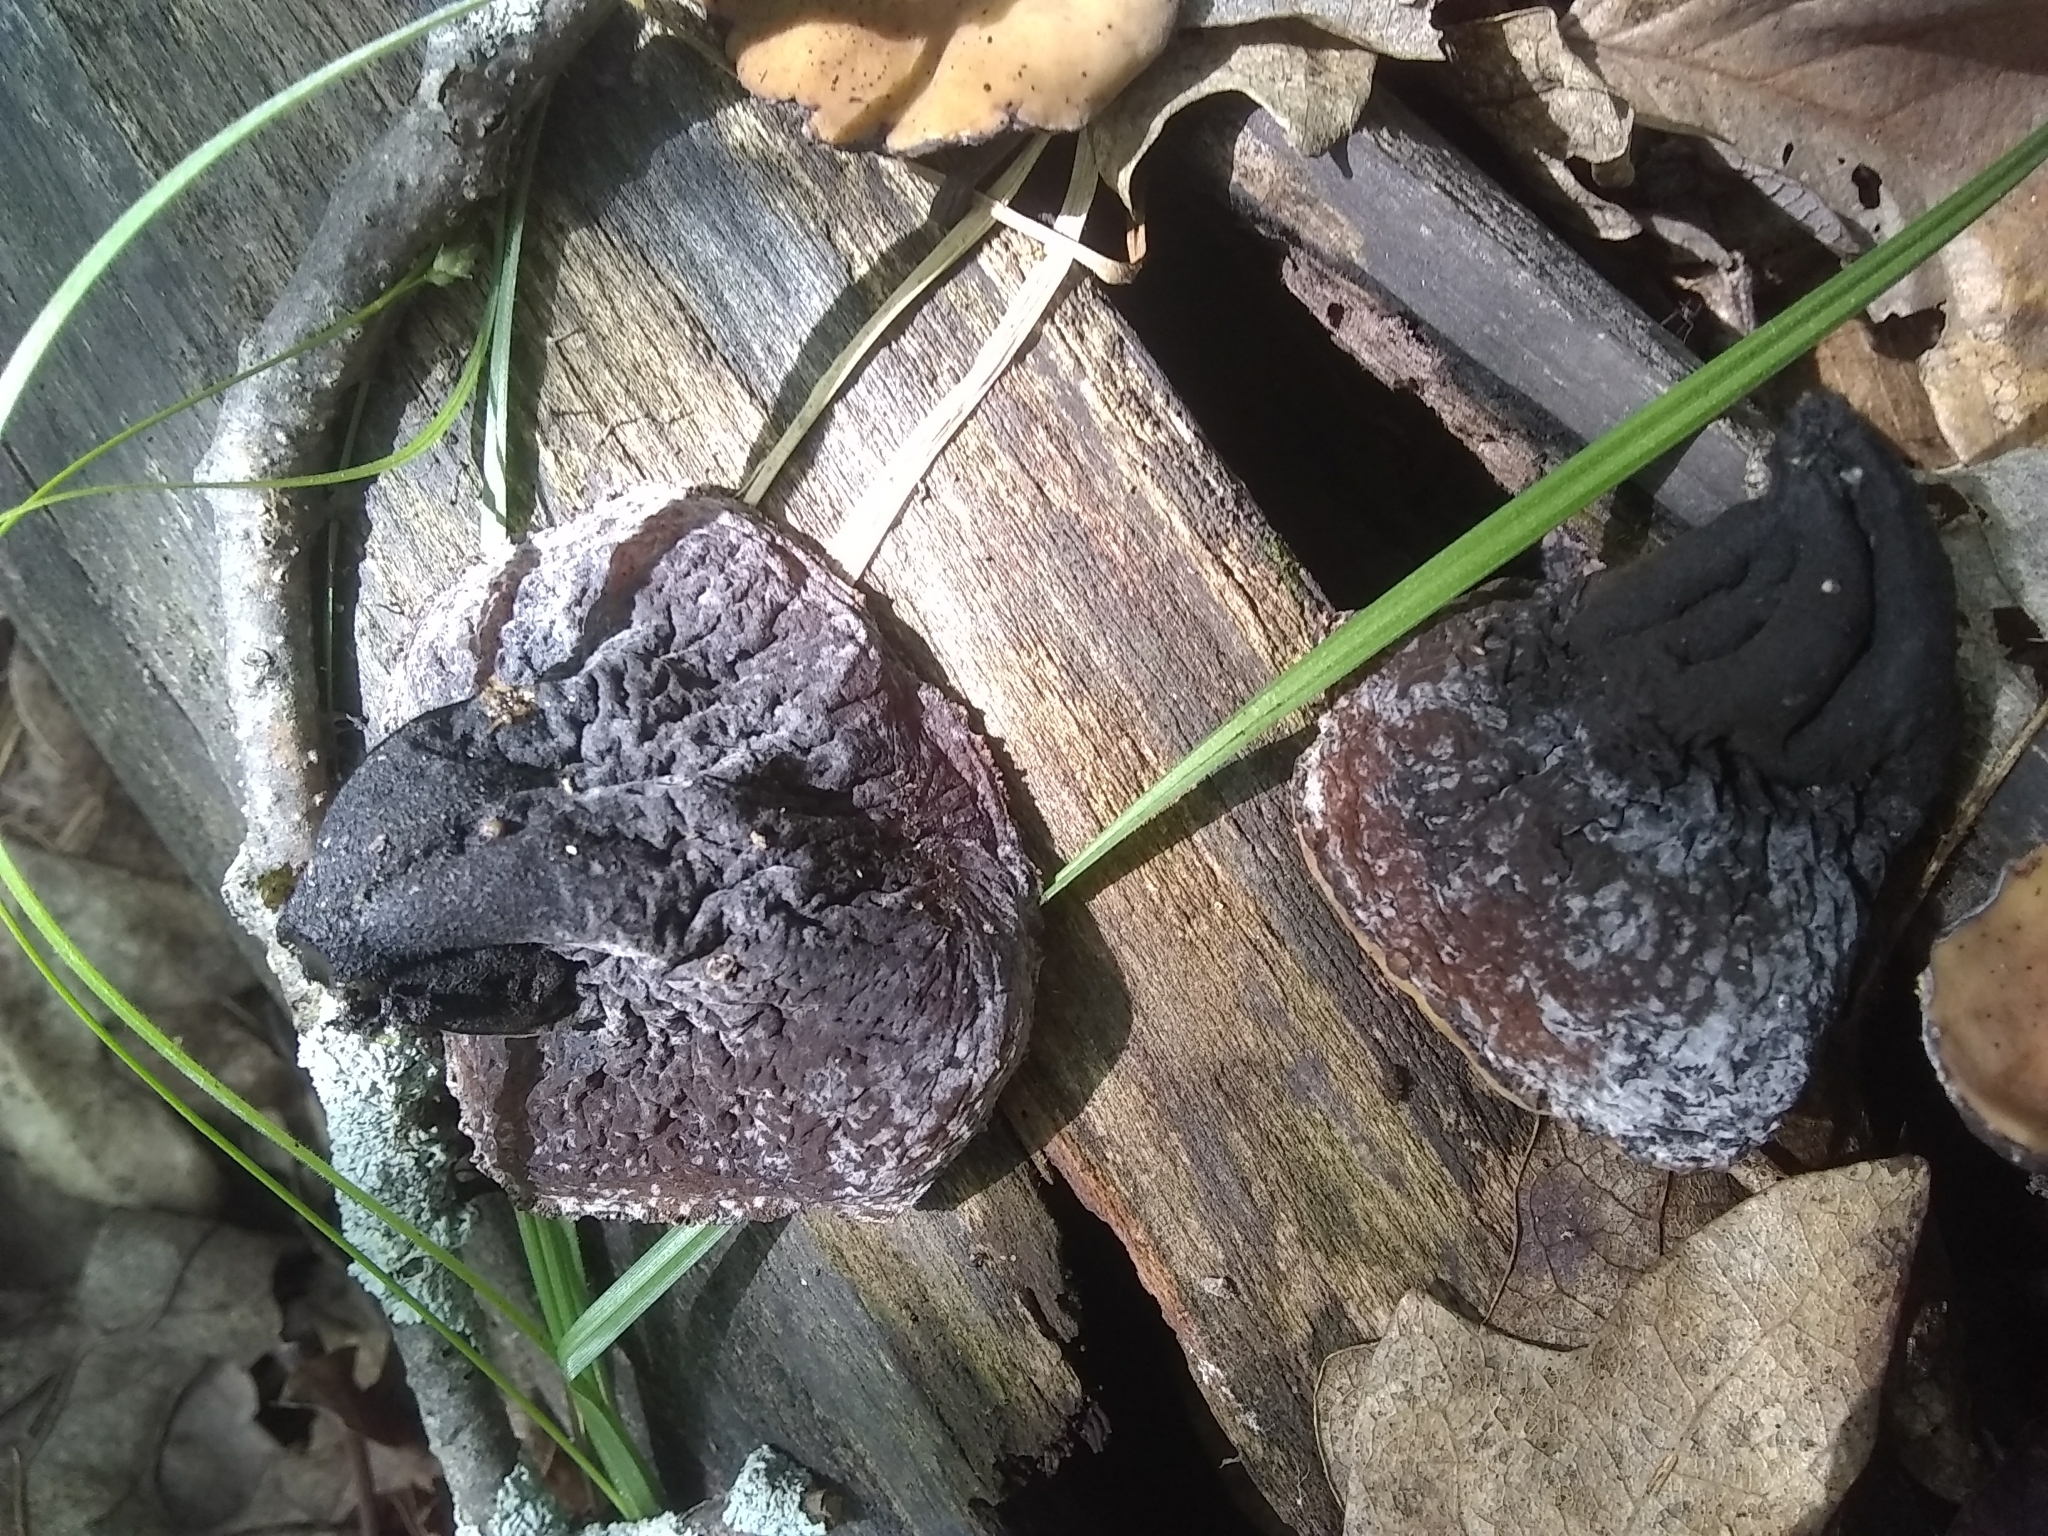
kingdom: Fungi
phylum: Ascomycota
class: Pezizomycetes
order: Pezizales
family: Sarcosomataceae
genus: Galiella
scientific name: Galiella rufa
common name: Hairy rubber cup
